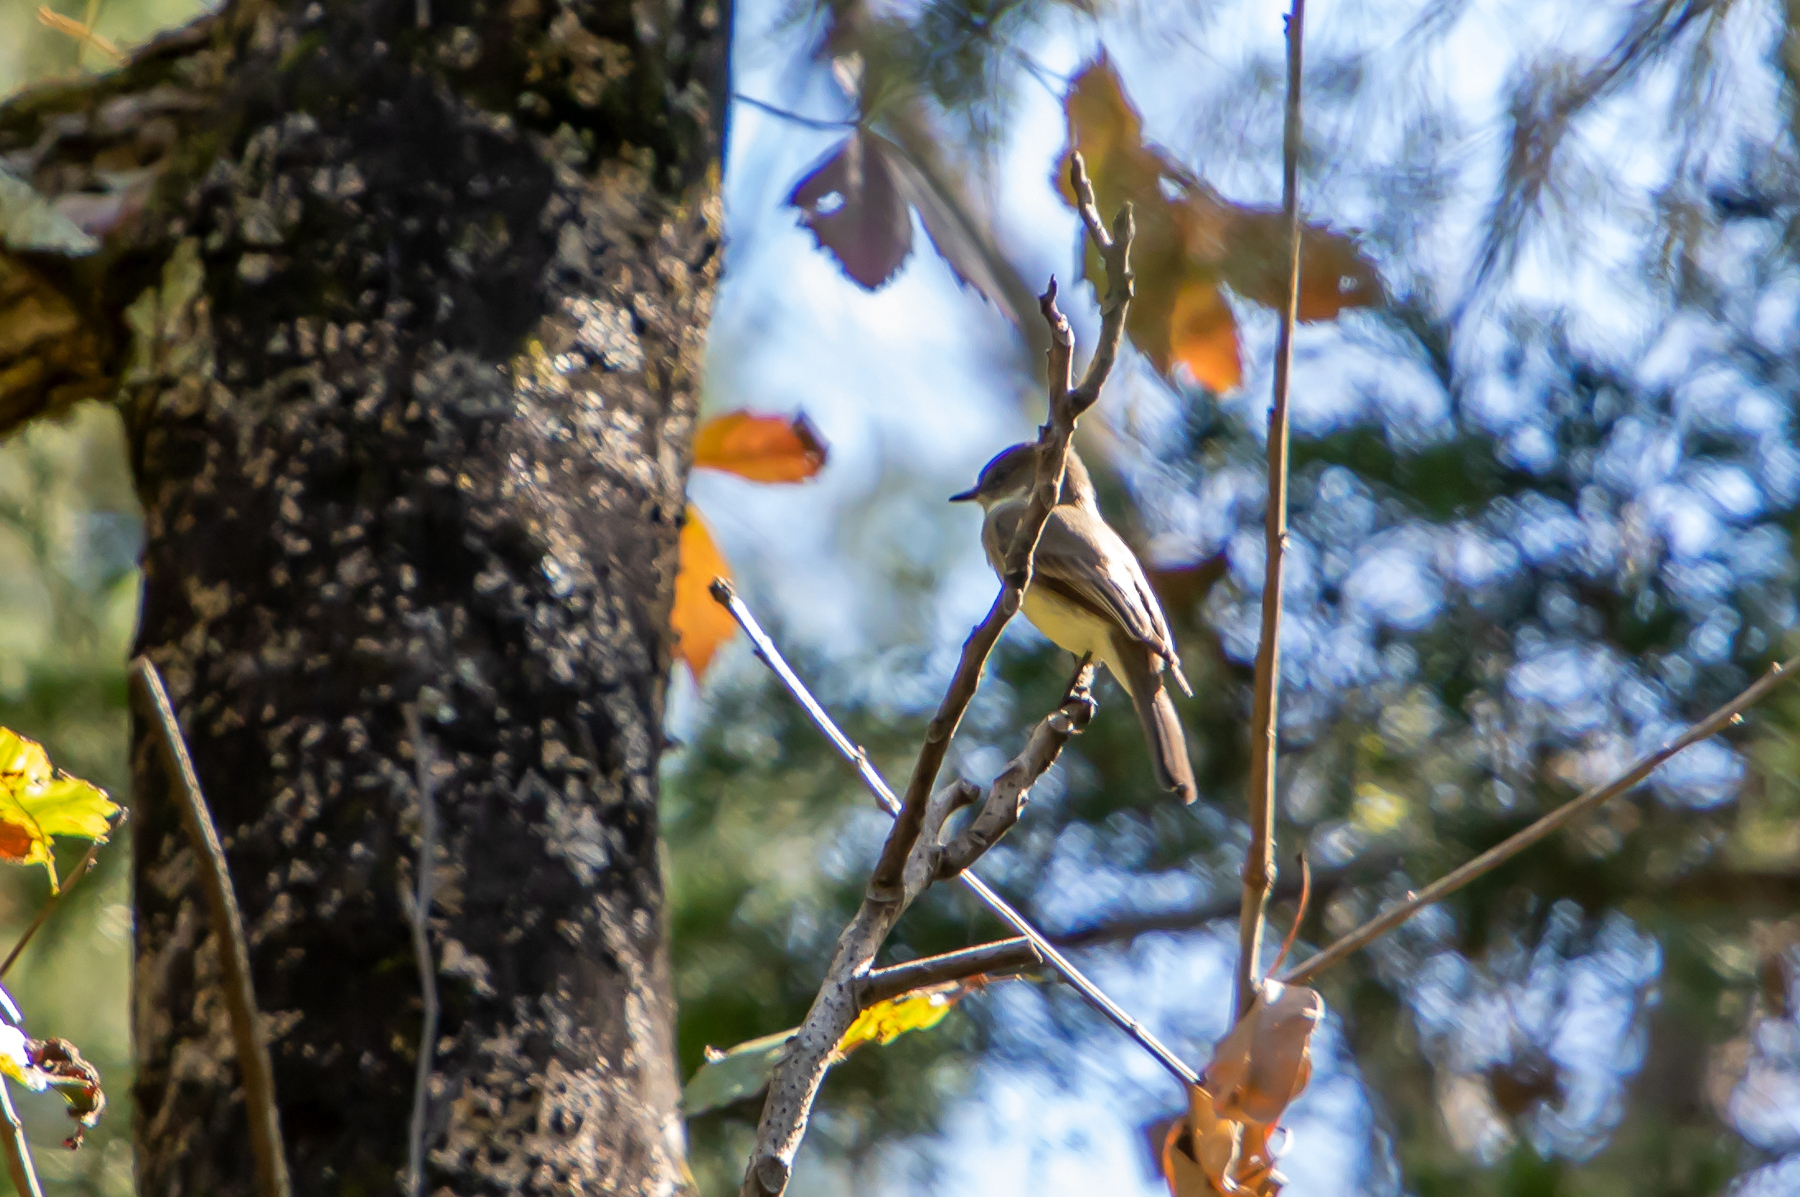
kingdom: Animalia
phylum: Chordata
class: Aves
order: Passeriformes
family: Tyrannidae
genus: Sayornis
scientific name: Sayornis phoebe
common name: Eastern phoebe
